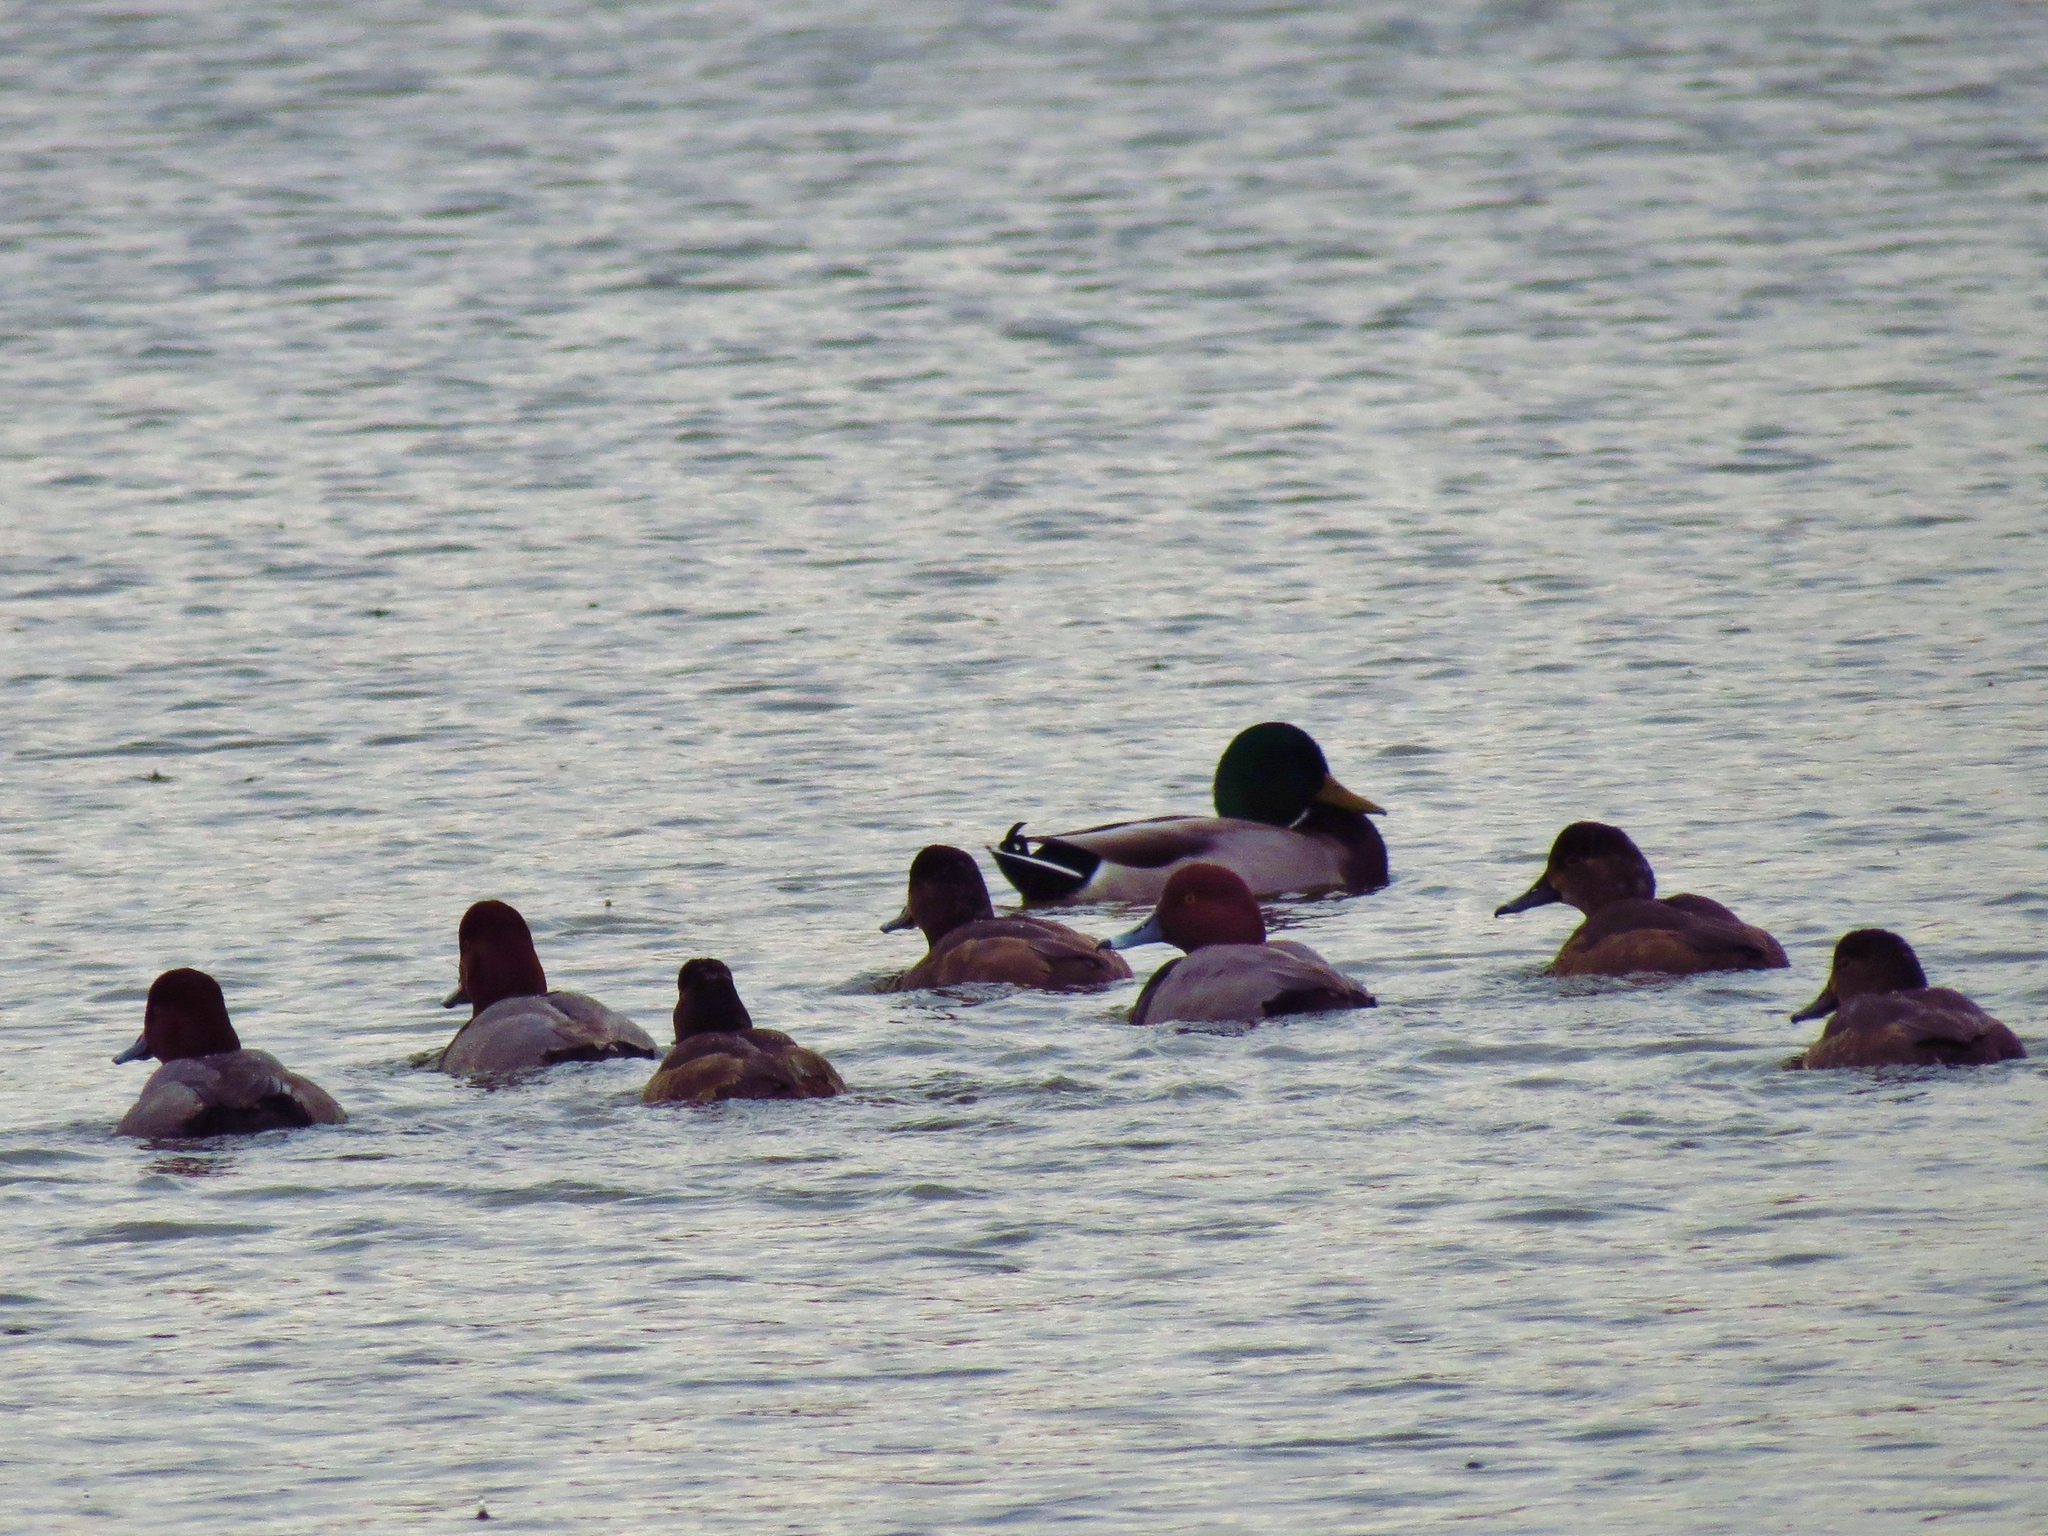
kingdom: Animalia
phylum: Chordata
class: Aves
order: Anseriformes
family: Anatidae
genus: Aythya
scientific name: Aythya americana
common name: Redhead
